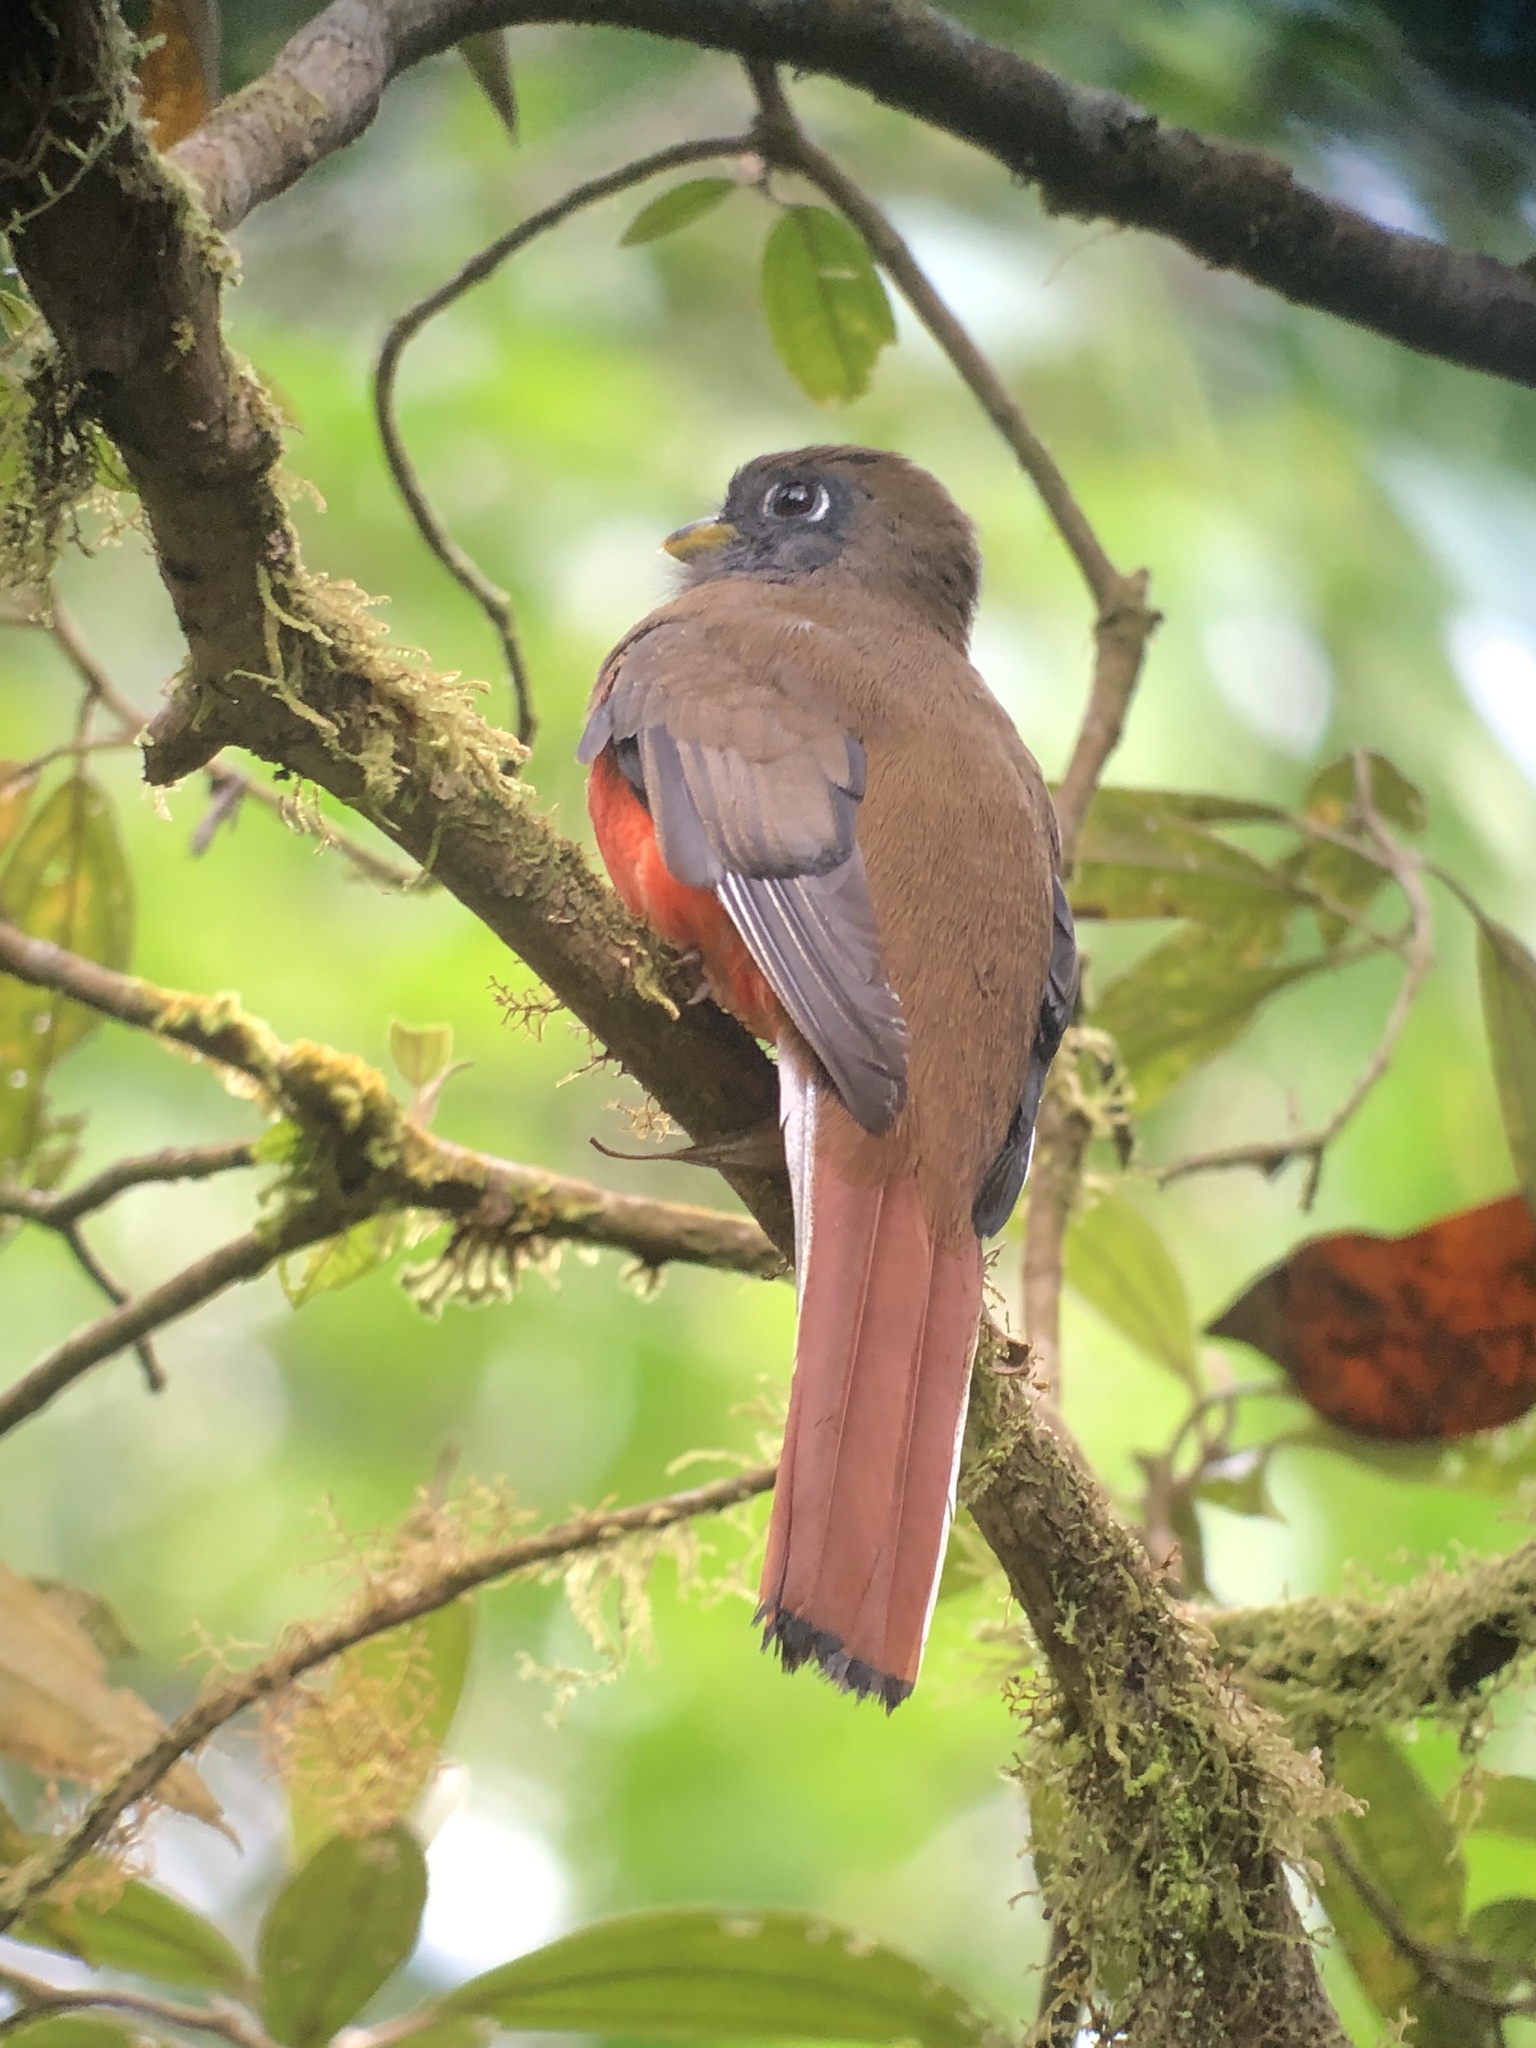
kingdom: Animalia
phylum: Chordata
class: Aves
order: Trogoniformes
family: Trogonidae
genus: Trogon
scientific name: Trogon collaris
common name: Collared trogon
